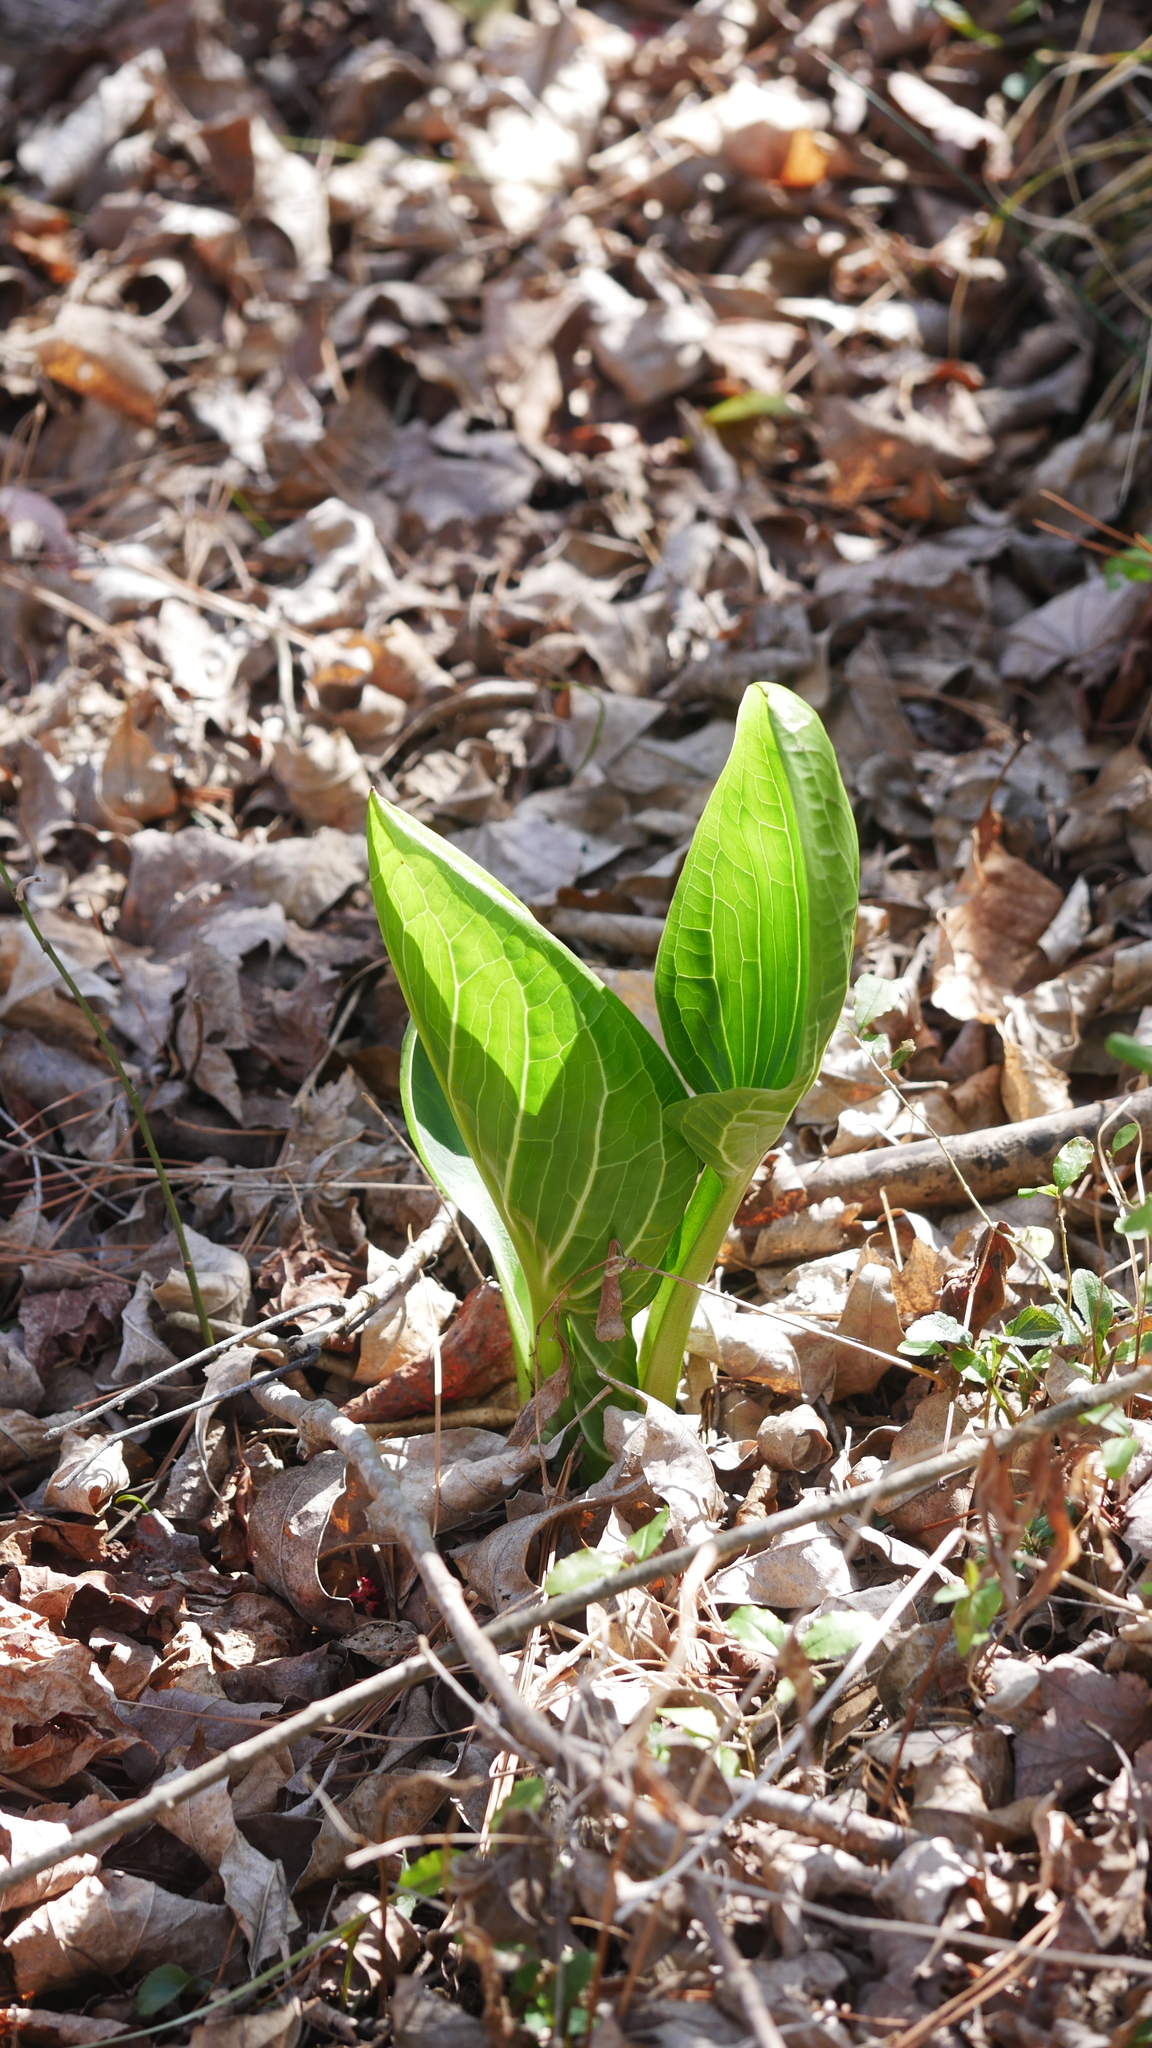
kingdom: Plantae
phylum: Tracheophyta
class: Liliopsida
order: Alismatales
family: Araceae
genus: Symplocarpus
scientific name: Symplocarpus foetidus
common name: Eastern skunk cabbage
